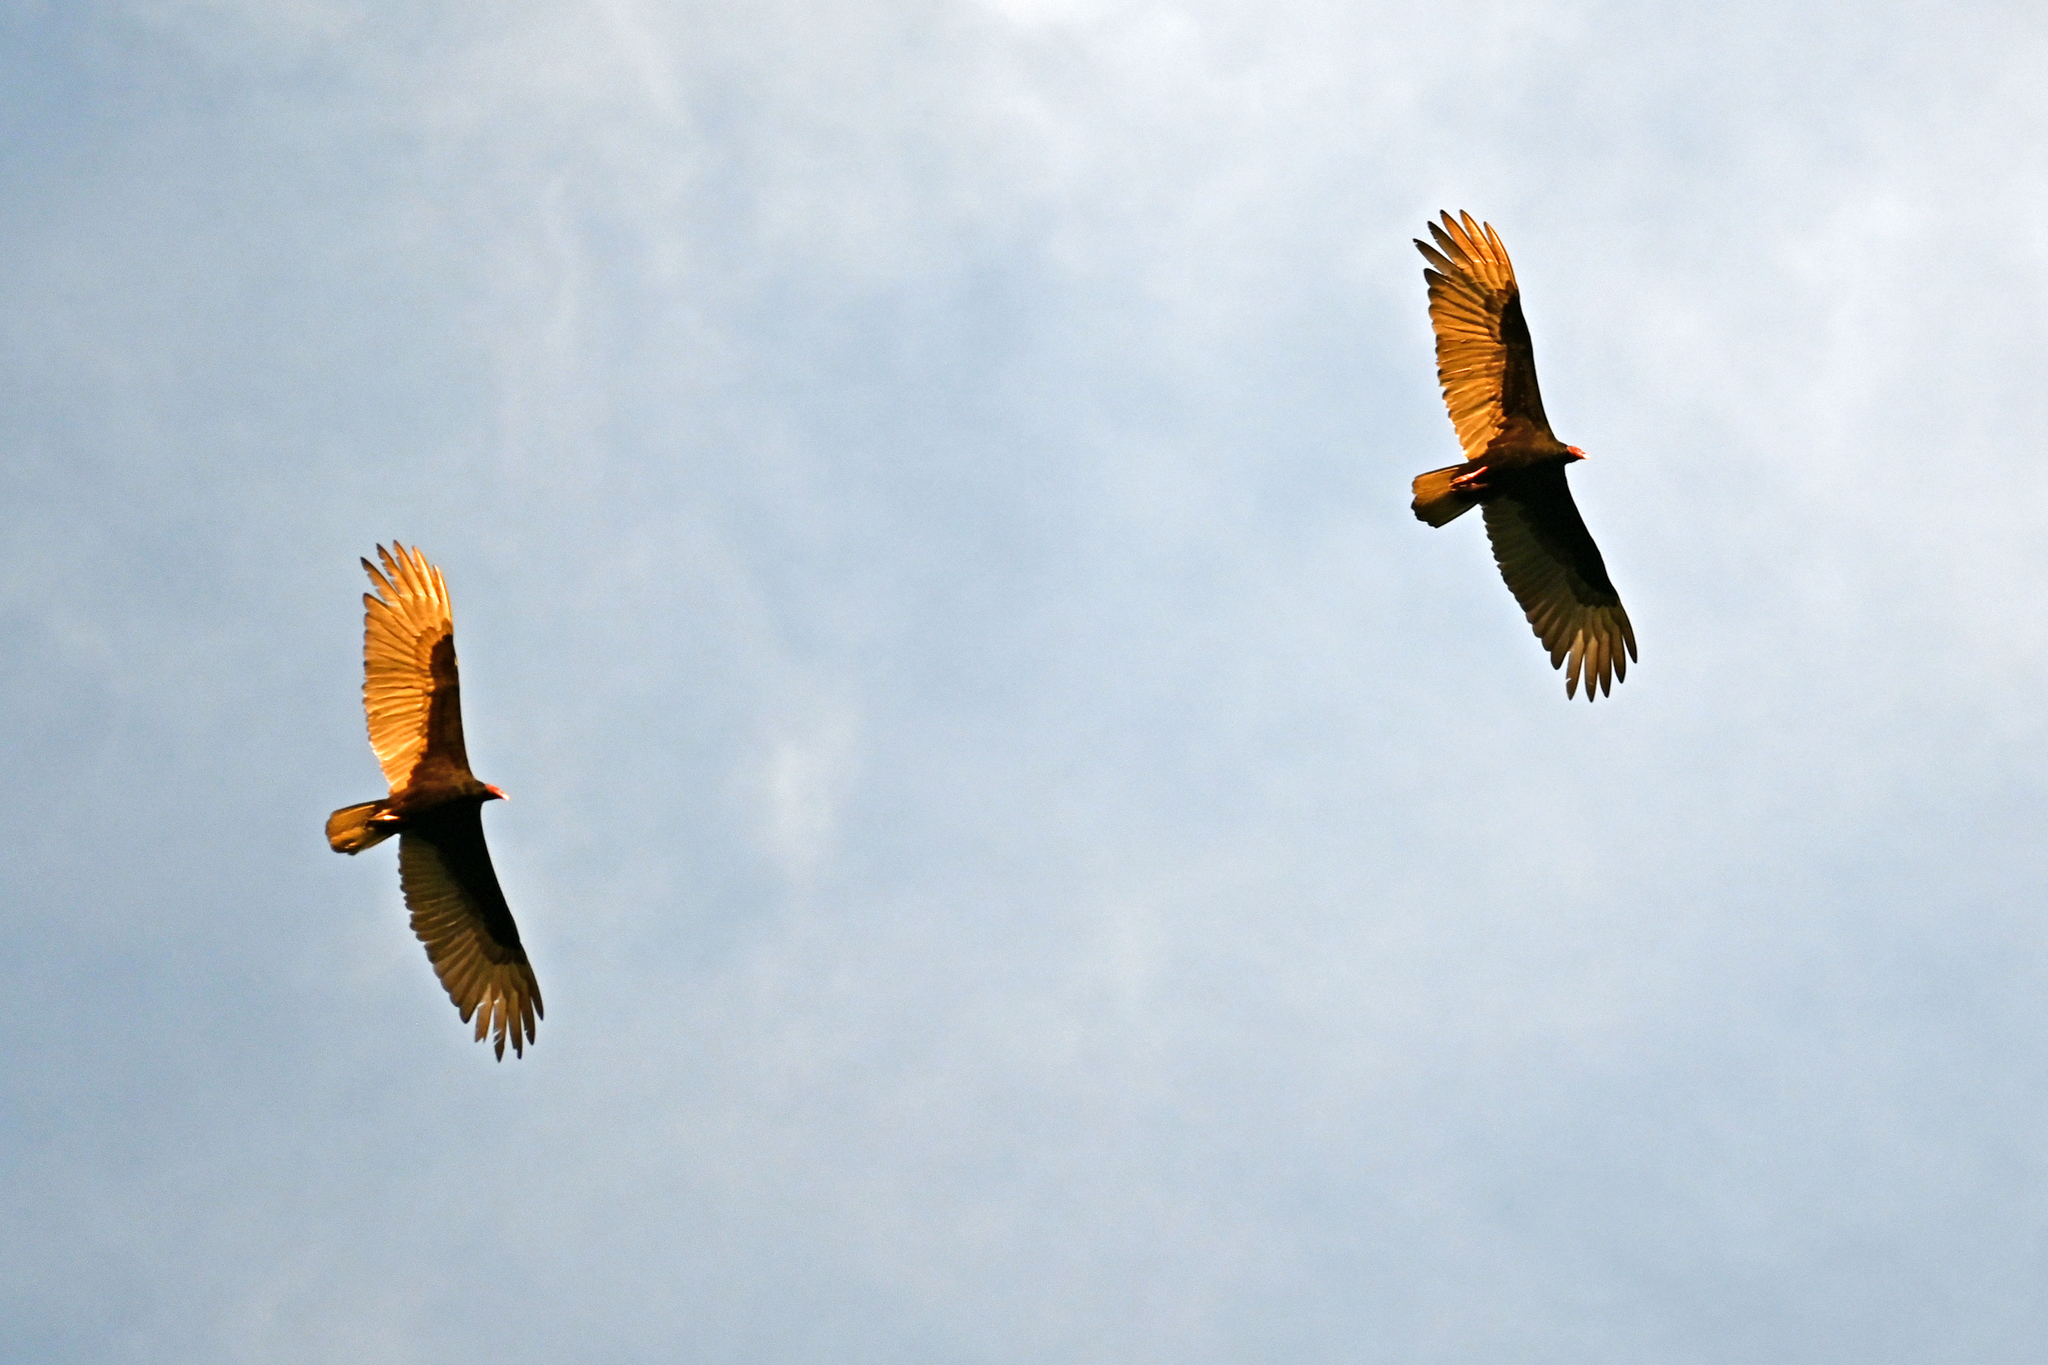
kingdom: Animalia
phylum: Chordata
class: Aves
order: Accipitriformes
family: Cathartidae
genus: Cathartes
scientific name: Cathartes aura
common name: Turkey vulture
